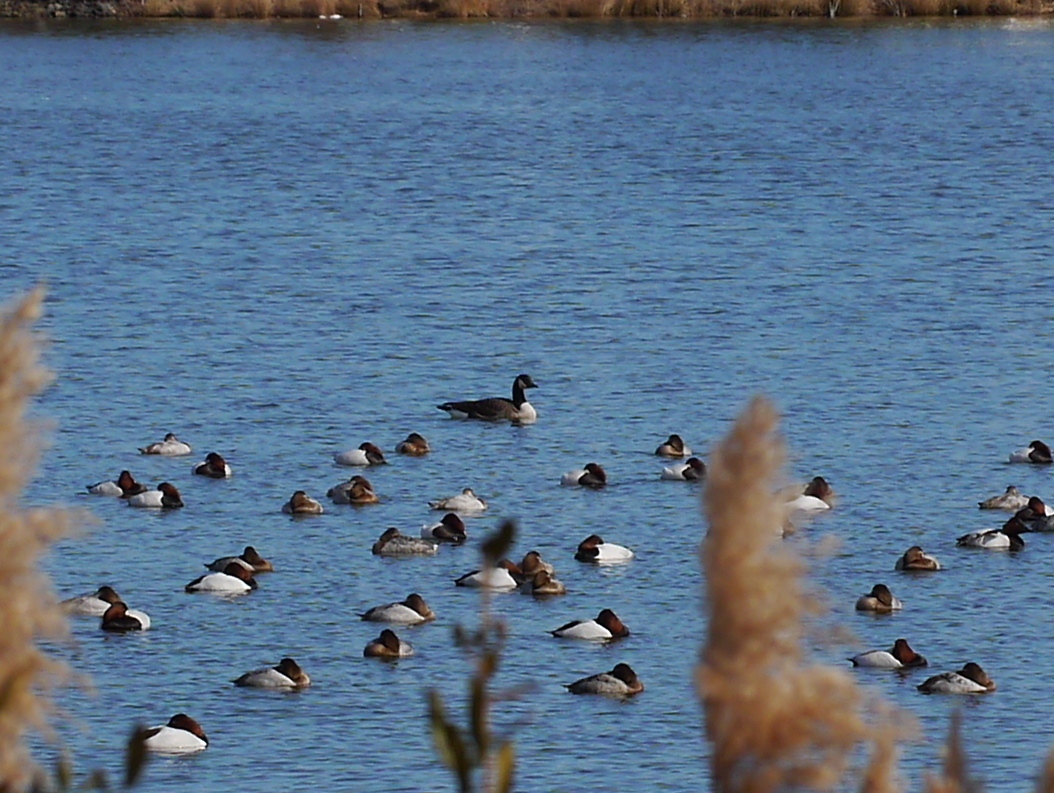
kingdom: Animalia
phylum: Chordata
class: Aves
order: Anseriformes
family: Anatidae
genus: Branta
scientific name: Branta canadensis
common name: Canada goose
